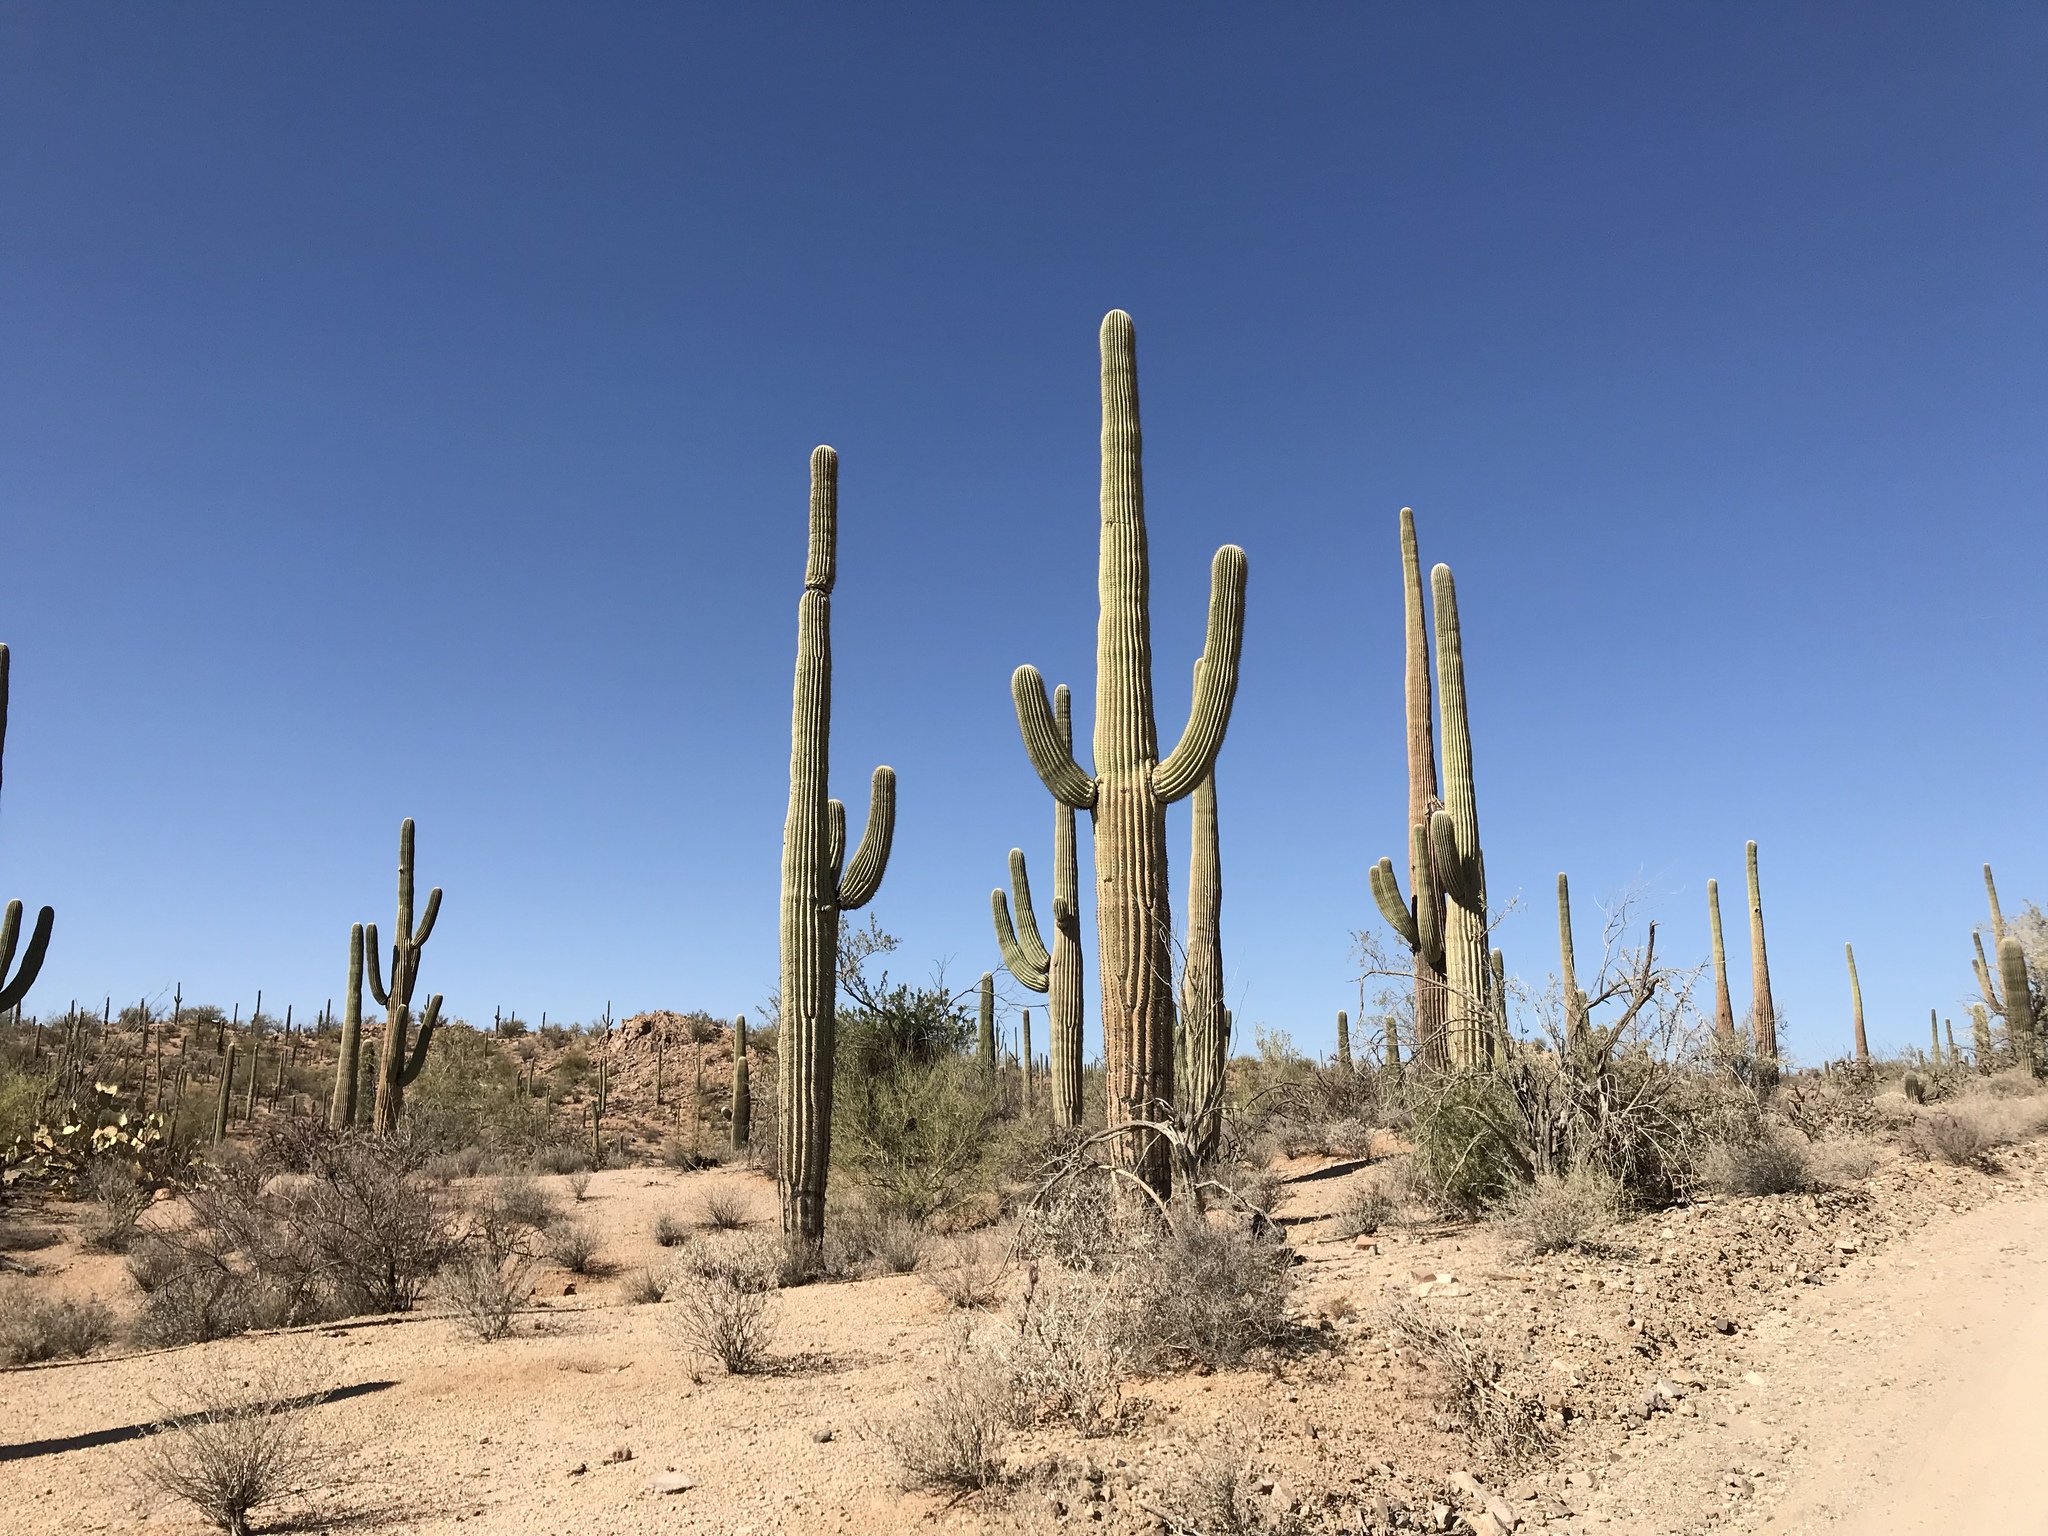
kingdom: Plantae
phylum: Tracheophyta
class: Magnoliopsida
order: Caryophyllales
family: Cactaceae
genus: Carnegiea
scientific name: Carnegiea gigantea
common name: Saguaro
